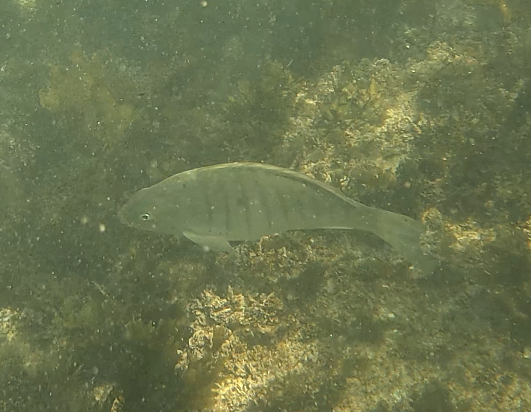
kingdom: Animalia
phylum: Chordata
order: Perciformes
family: Kyphosidae
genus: Girella
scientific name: Girella tricuspidata
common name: Parore
